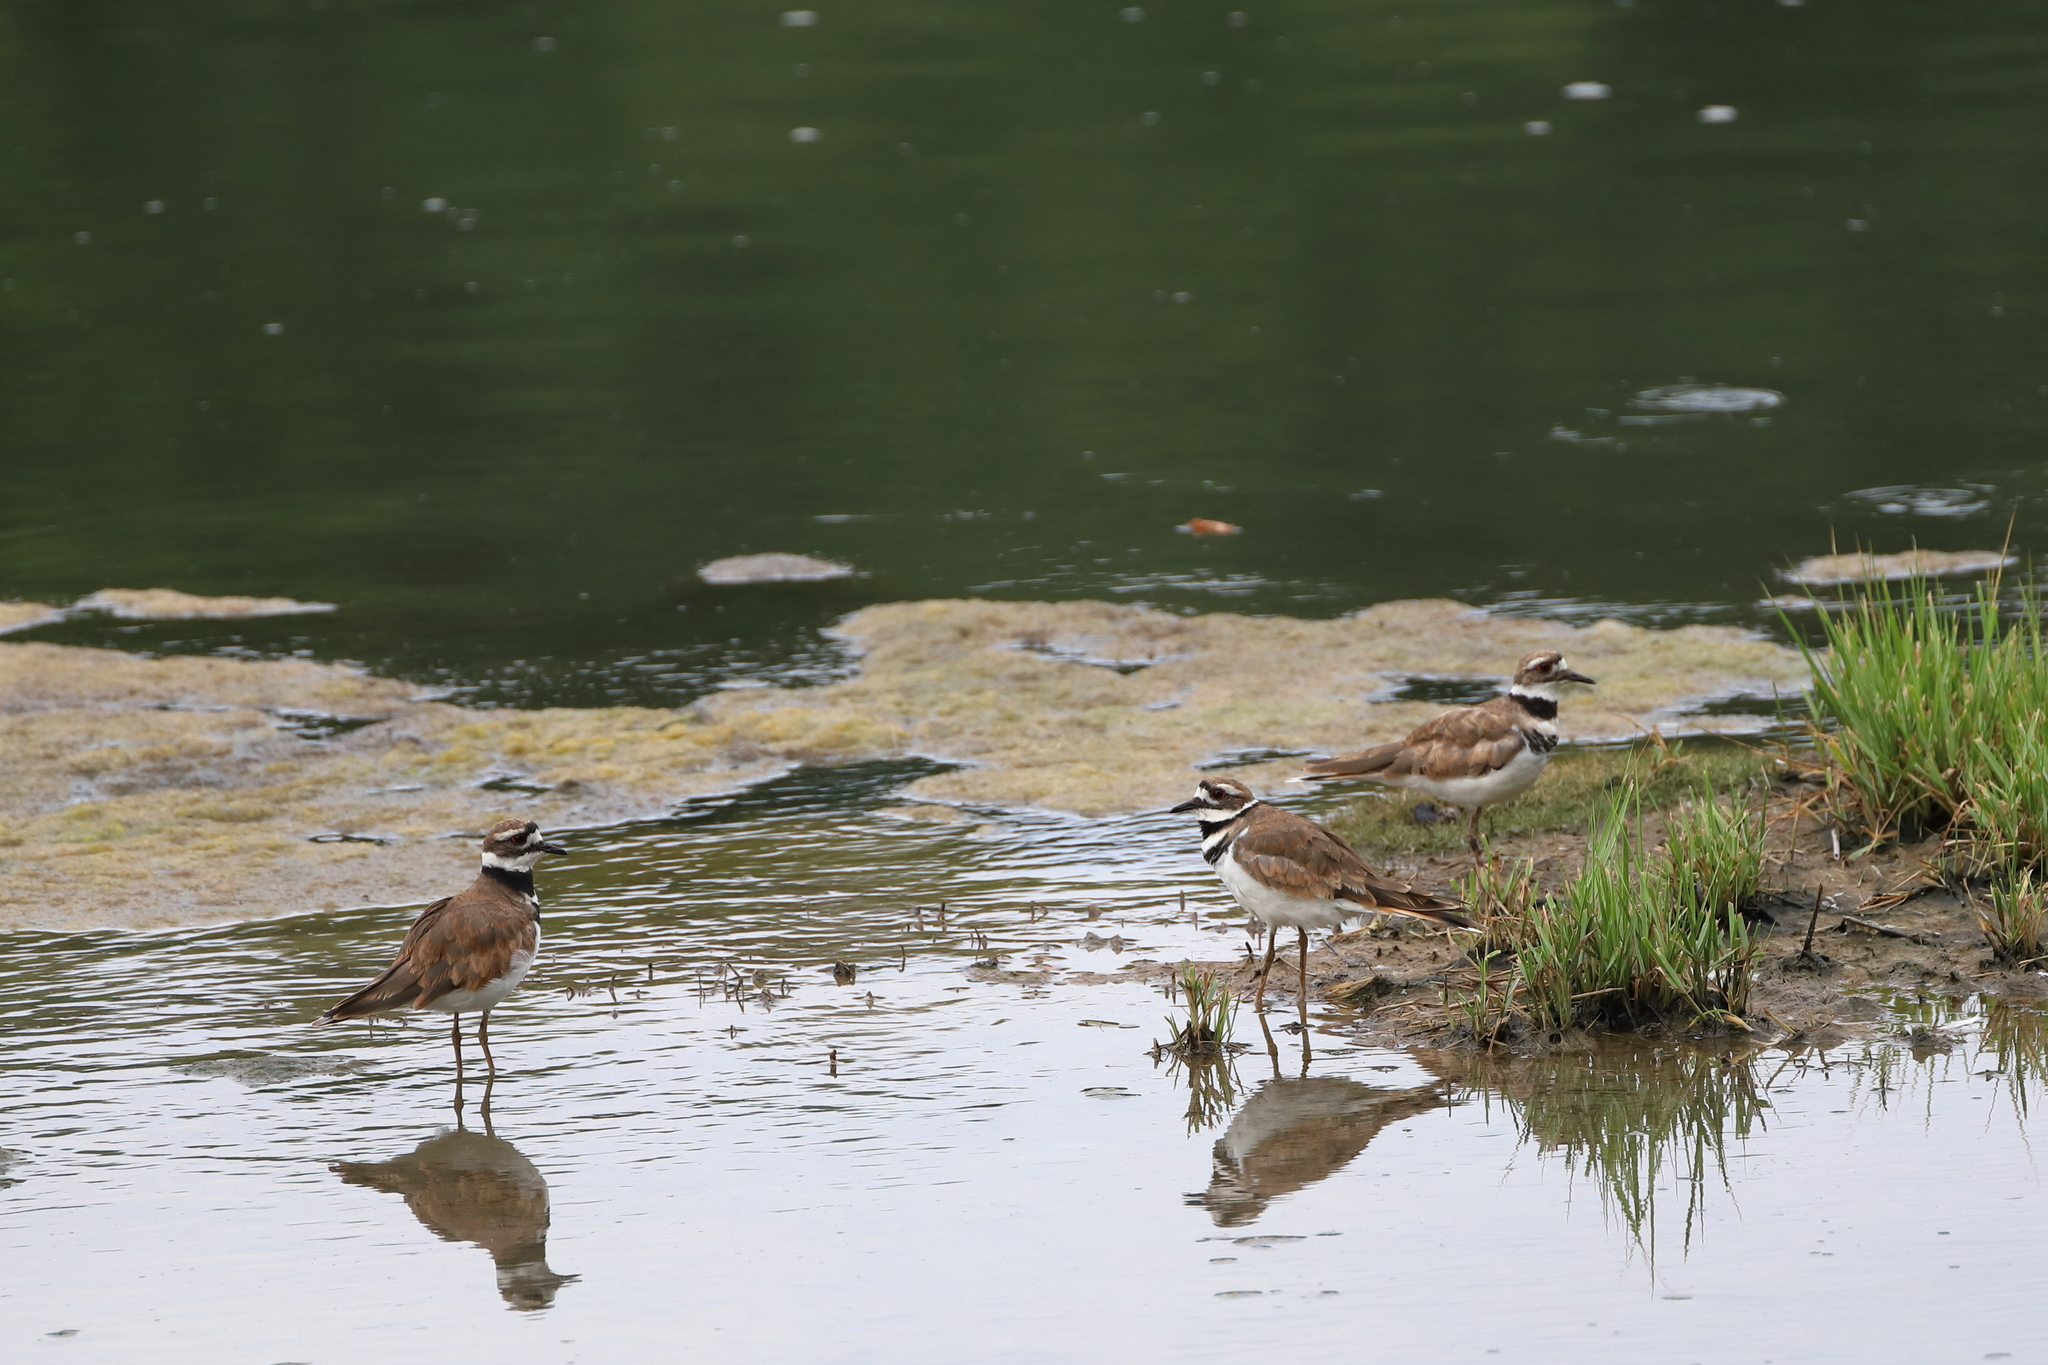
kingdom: Animalia
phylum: Chordata
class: Aves
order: Charadriiformes
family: Charadriidae
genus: Charadrius
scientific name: Charadrius vociferus
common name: Killdeer
